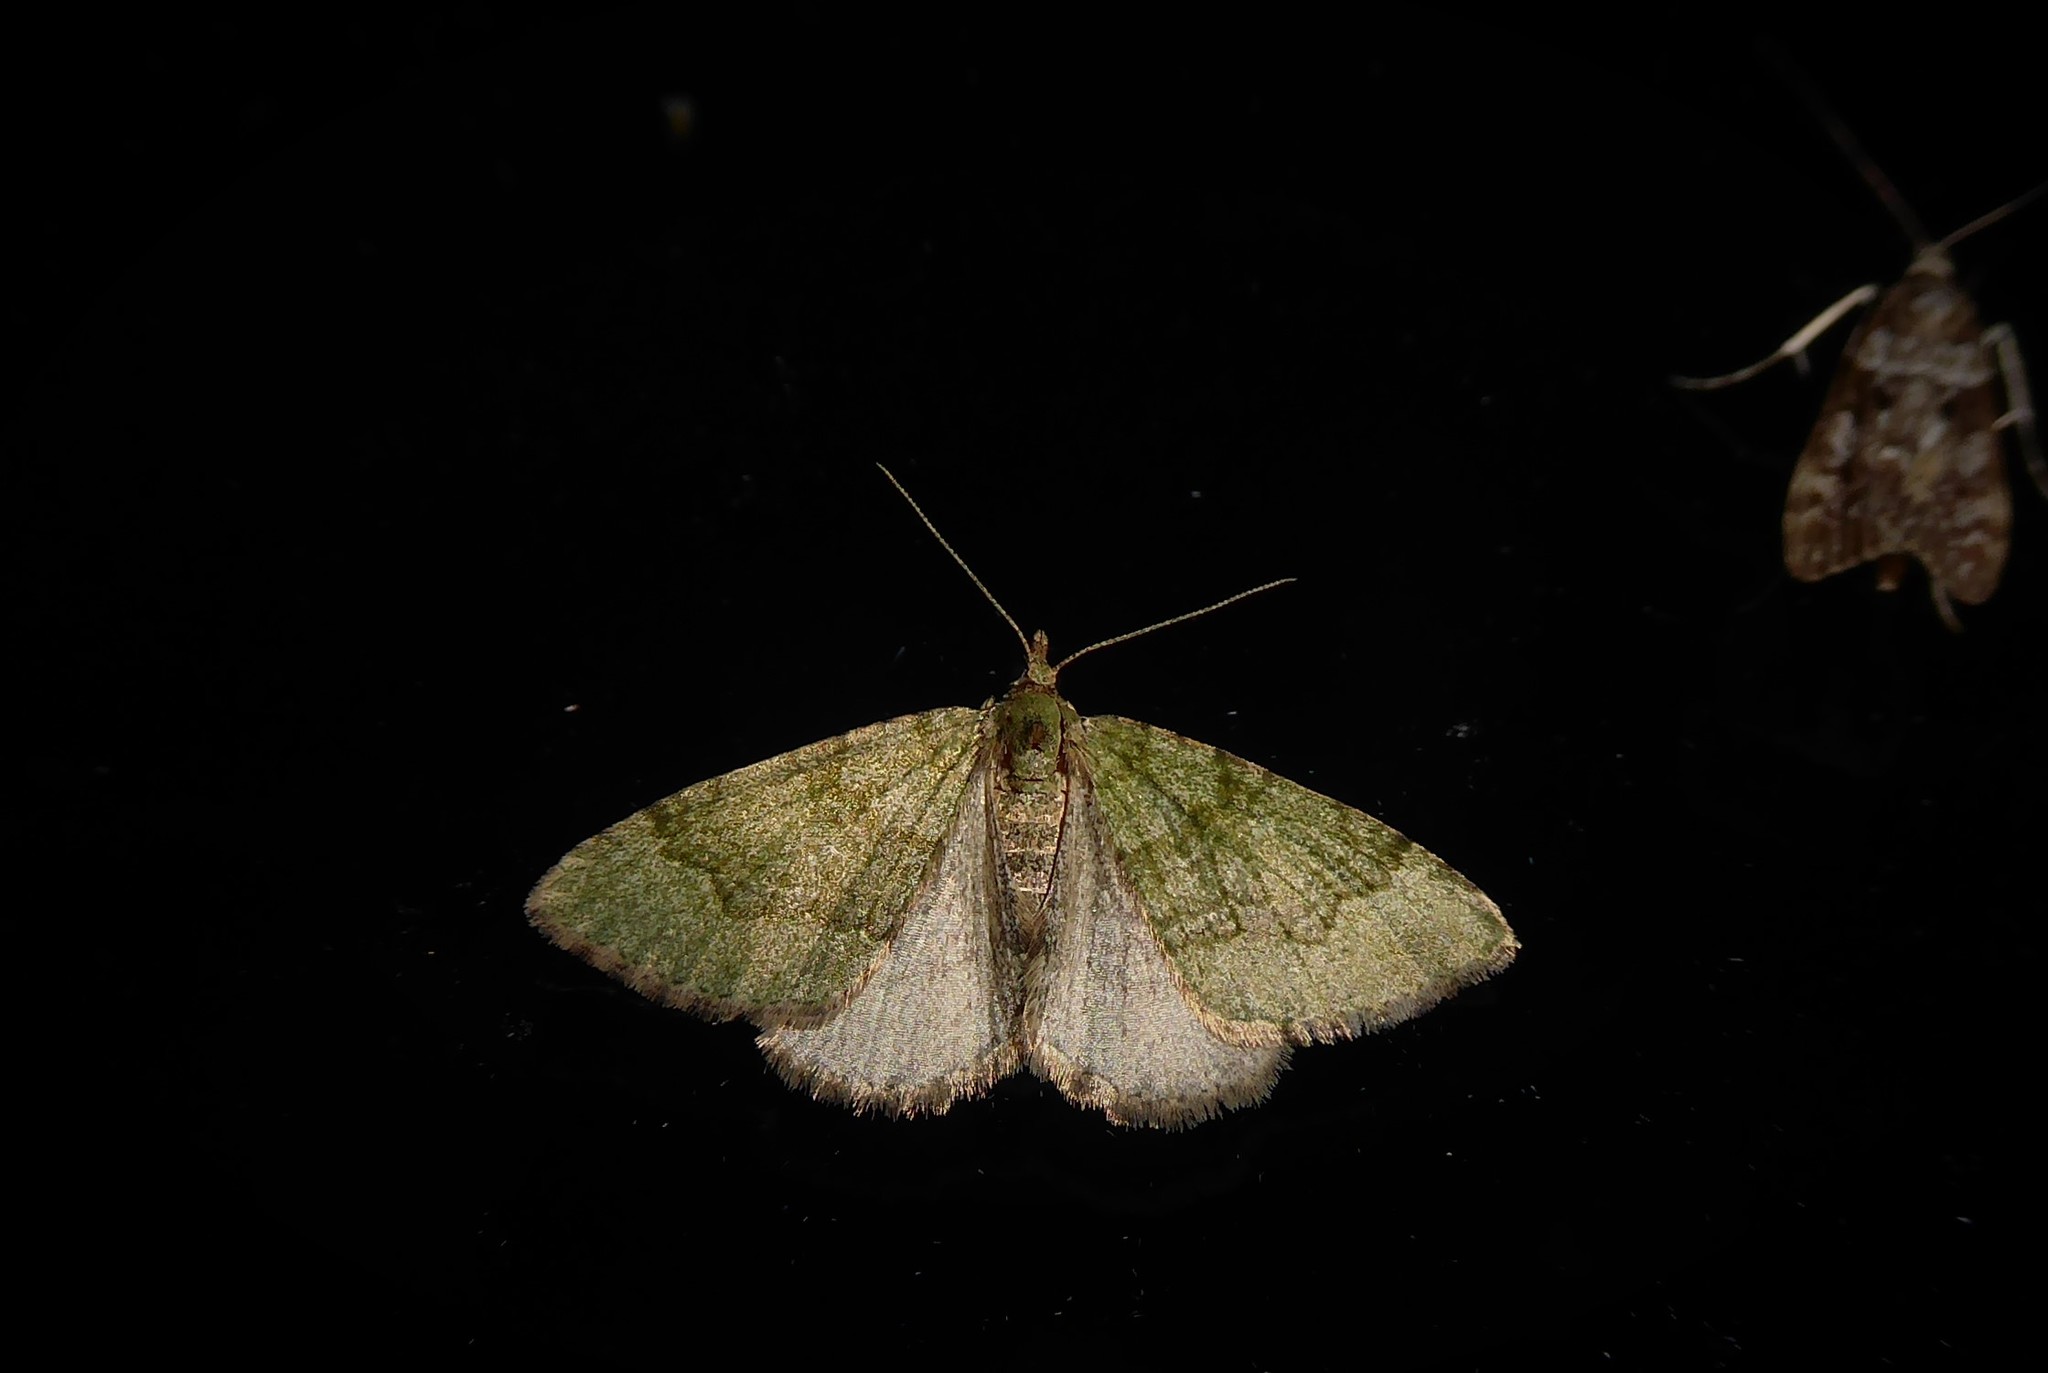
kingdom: Animalia
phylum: Arthropoda
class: Insecta
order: Lepidoptera
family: Geometridae
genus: Epyaxa
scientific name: Epyaxa rosearia
